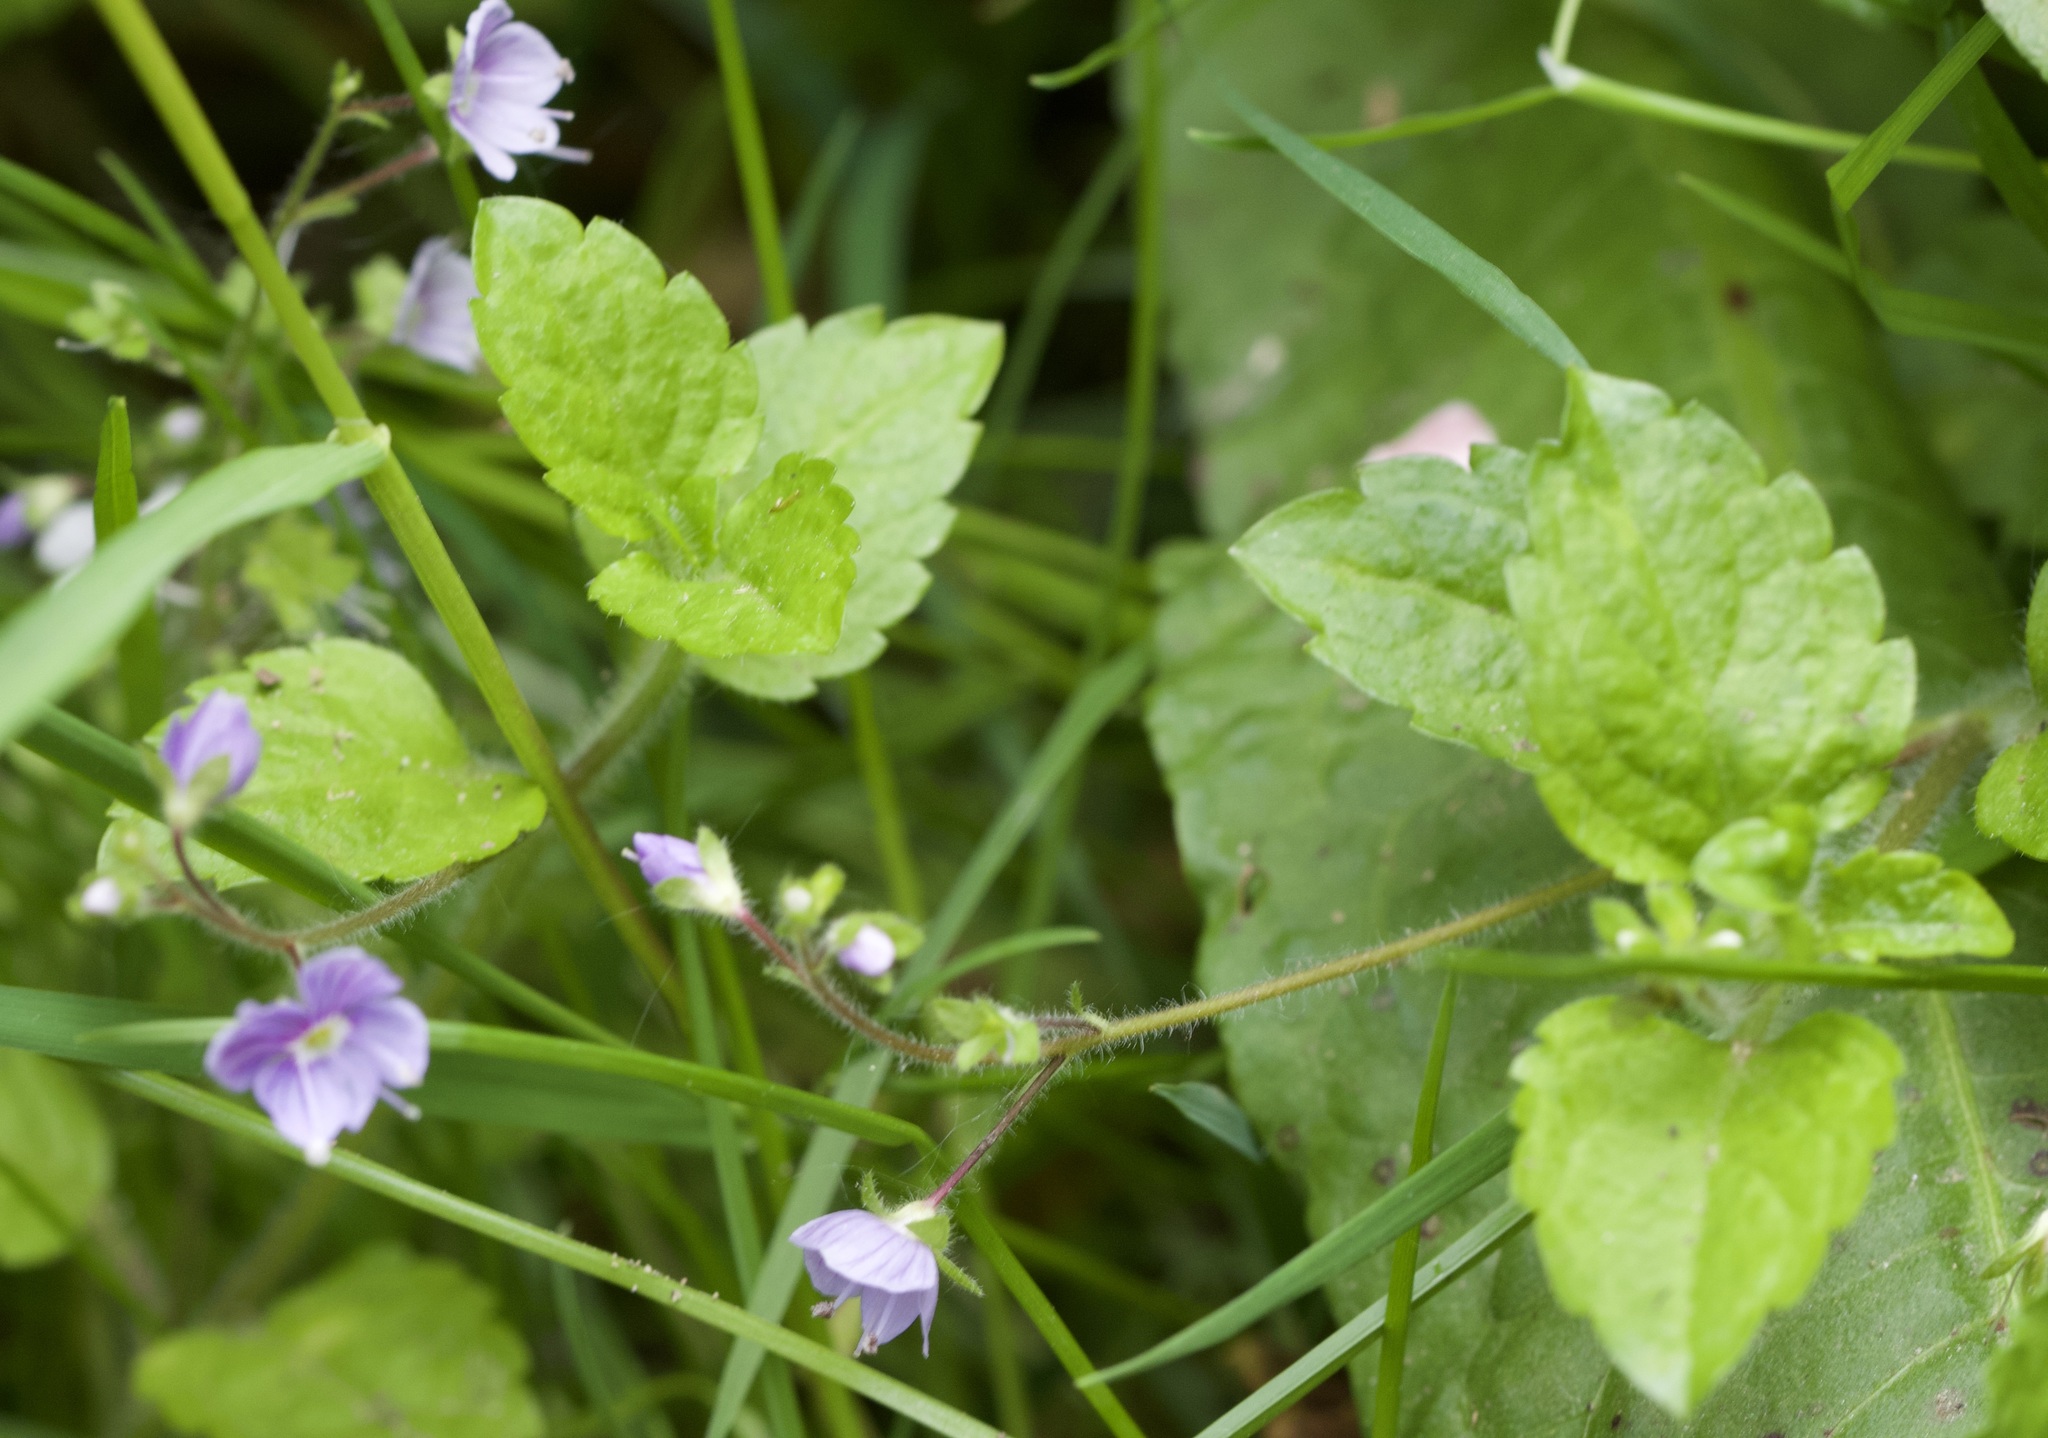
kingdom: Plantae
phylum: Tracheophyta
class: Magnoliopsida
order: Lamiales
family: Plantaginaceae
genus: Veronica
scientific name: Veronica montana
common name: Wood speedwell
